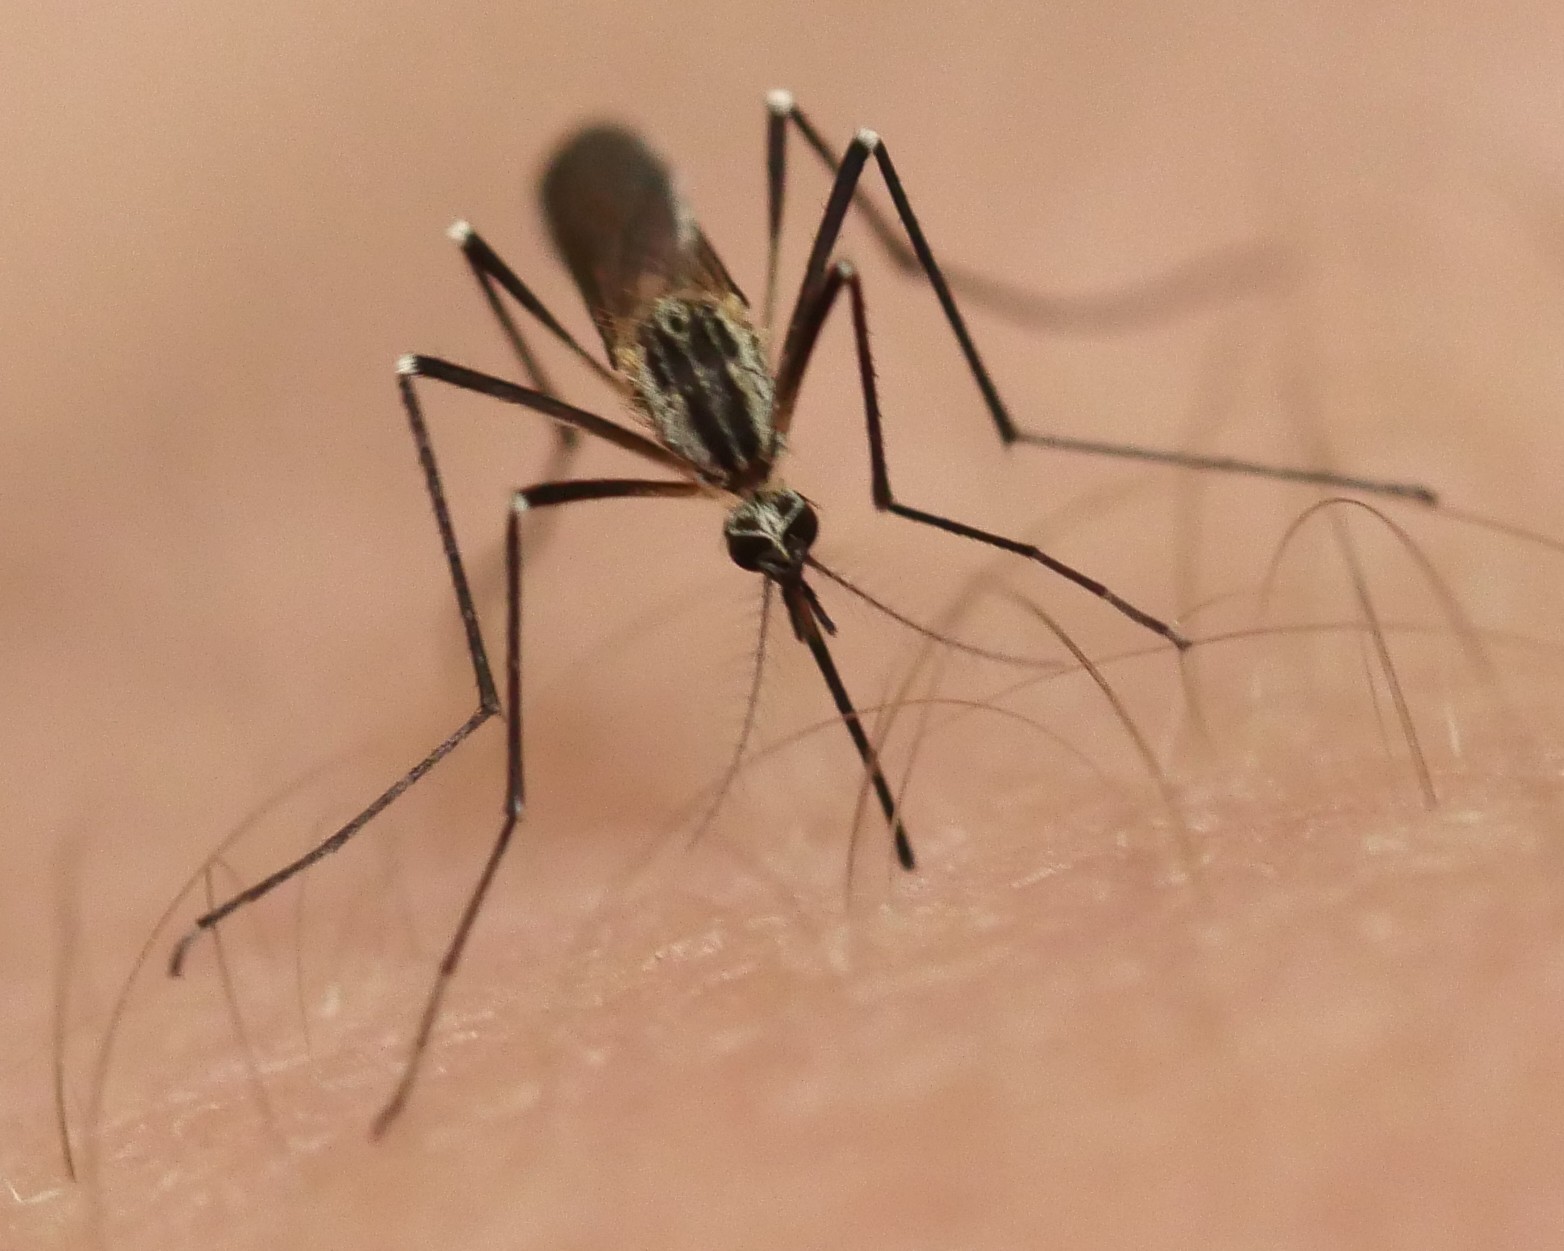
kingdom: Animalia
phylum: Arthropoda
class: Insecta
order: Diptera
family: Culicidae
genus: Aedes
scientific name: Aedes geniculatus
